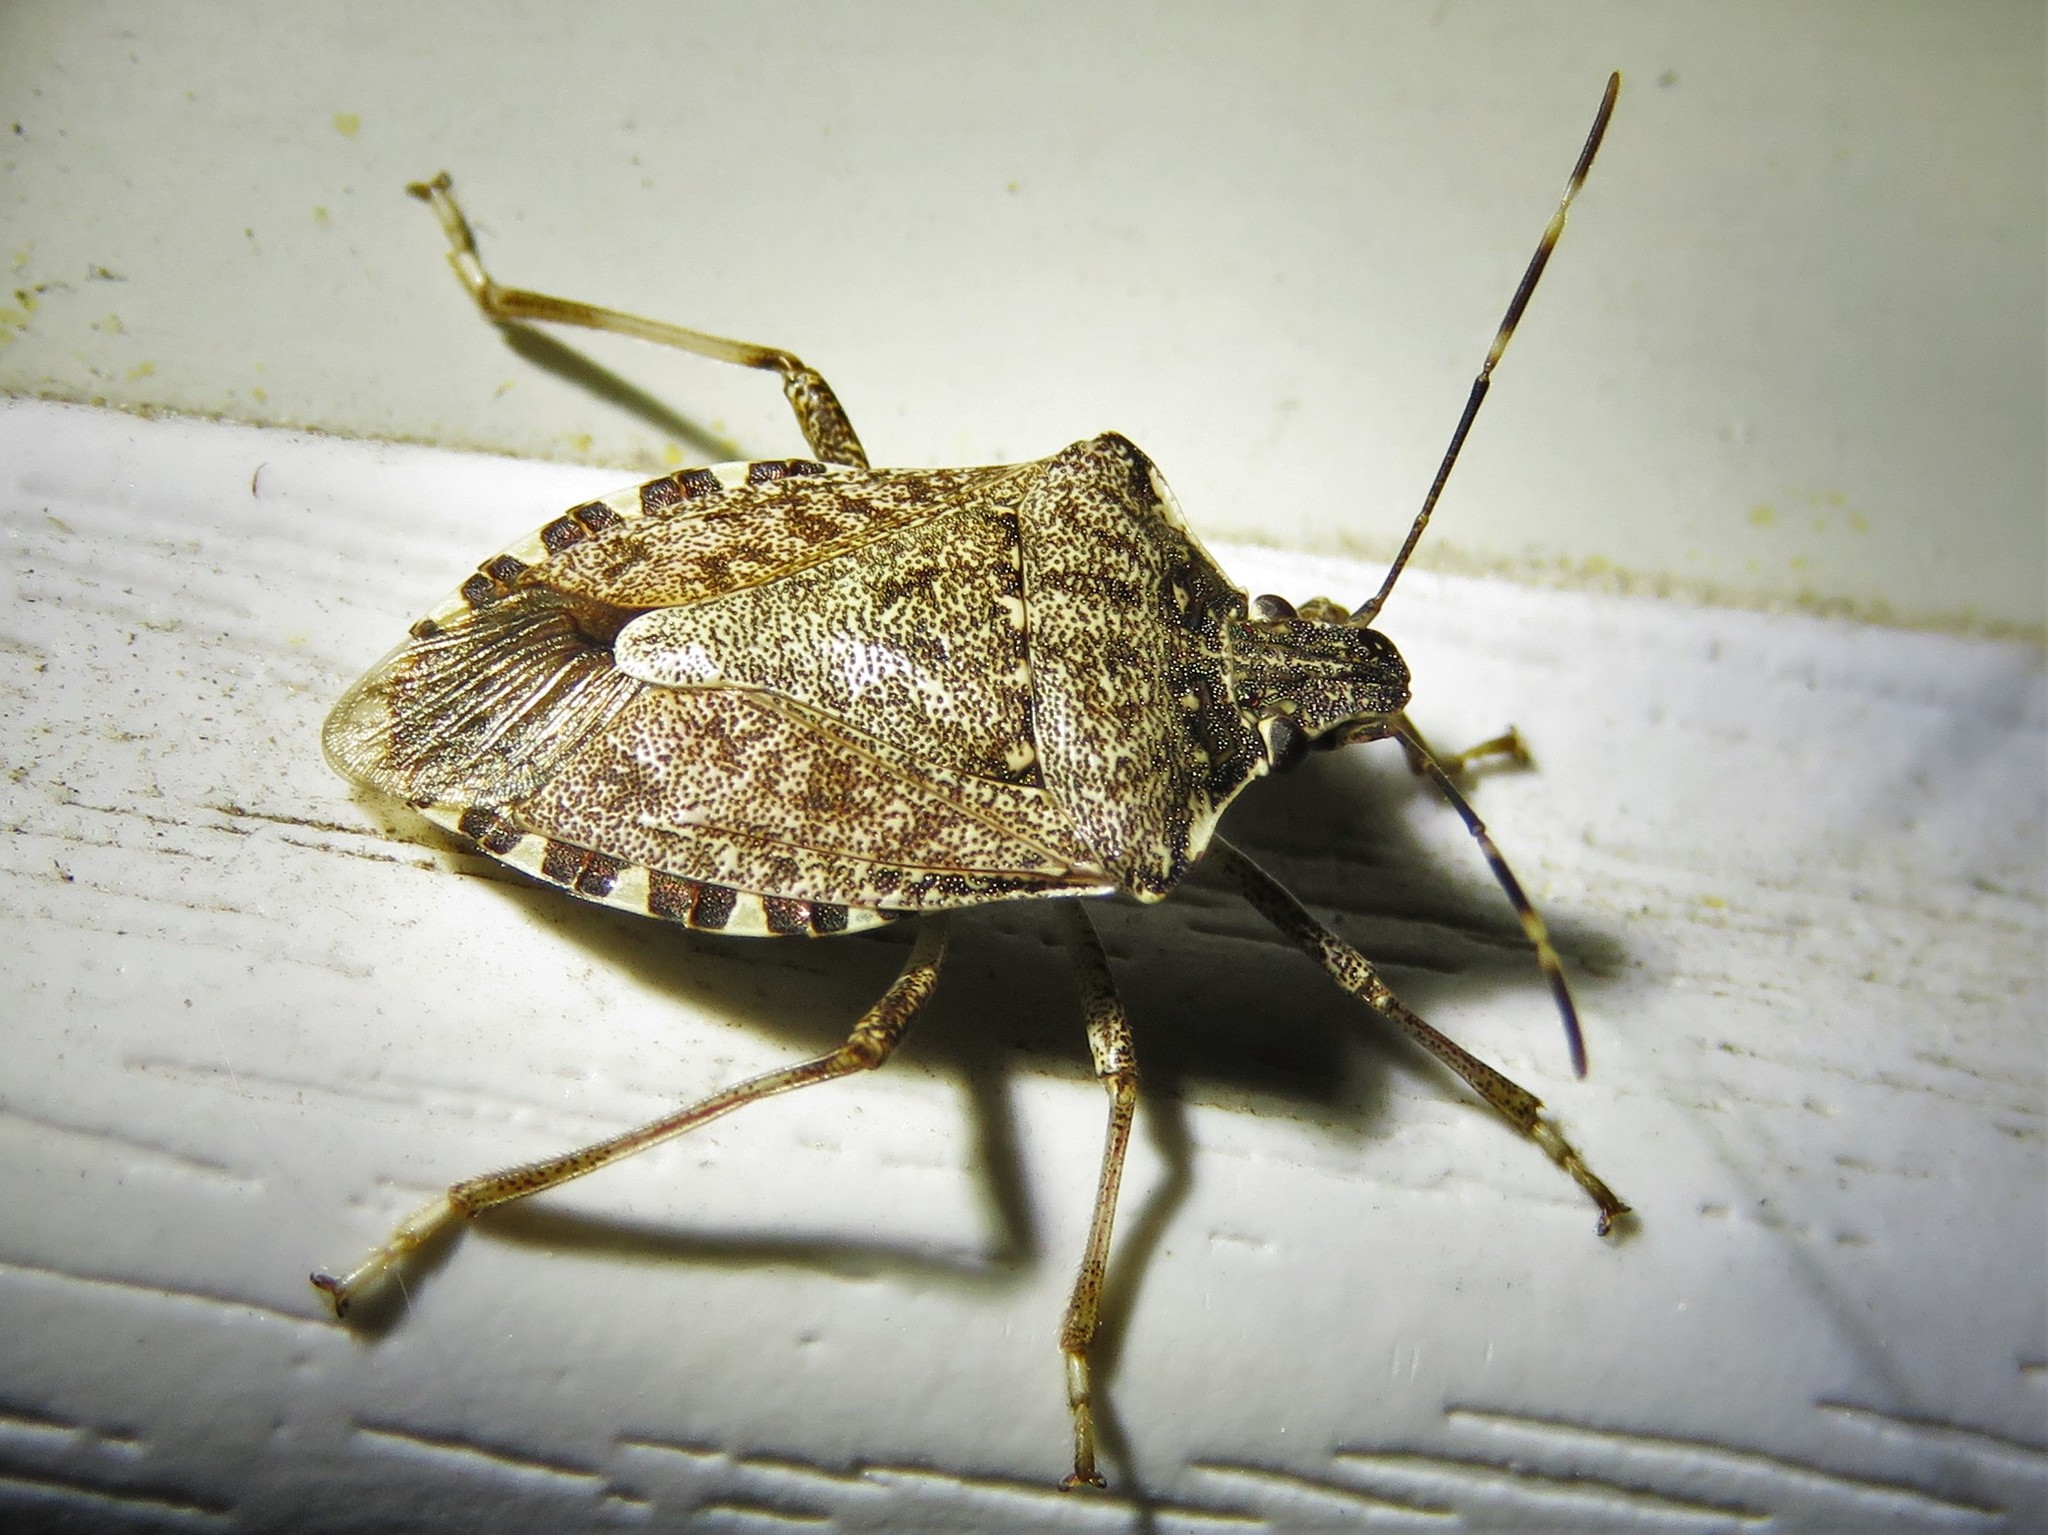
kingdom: Animalia
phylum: Arthropoda
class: Insecta
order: Hemiptera
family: Pentatomidae
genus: Halyomorpha
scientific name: Halyomorpha halys
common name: Brown marmorated stink bug
